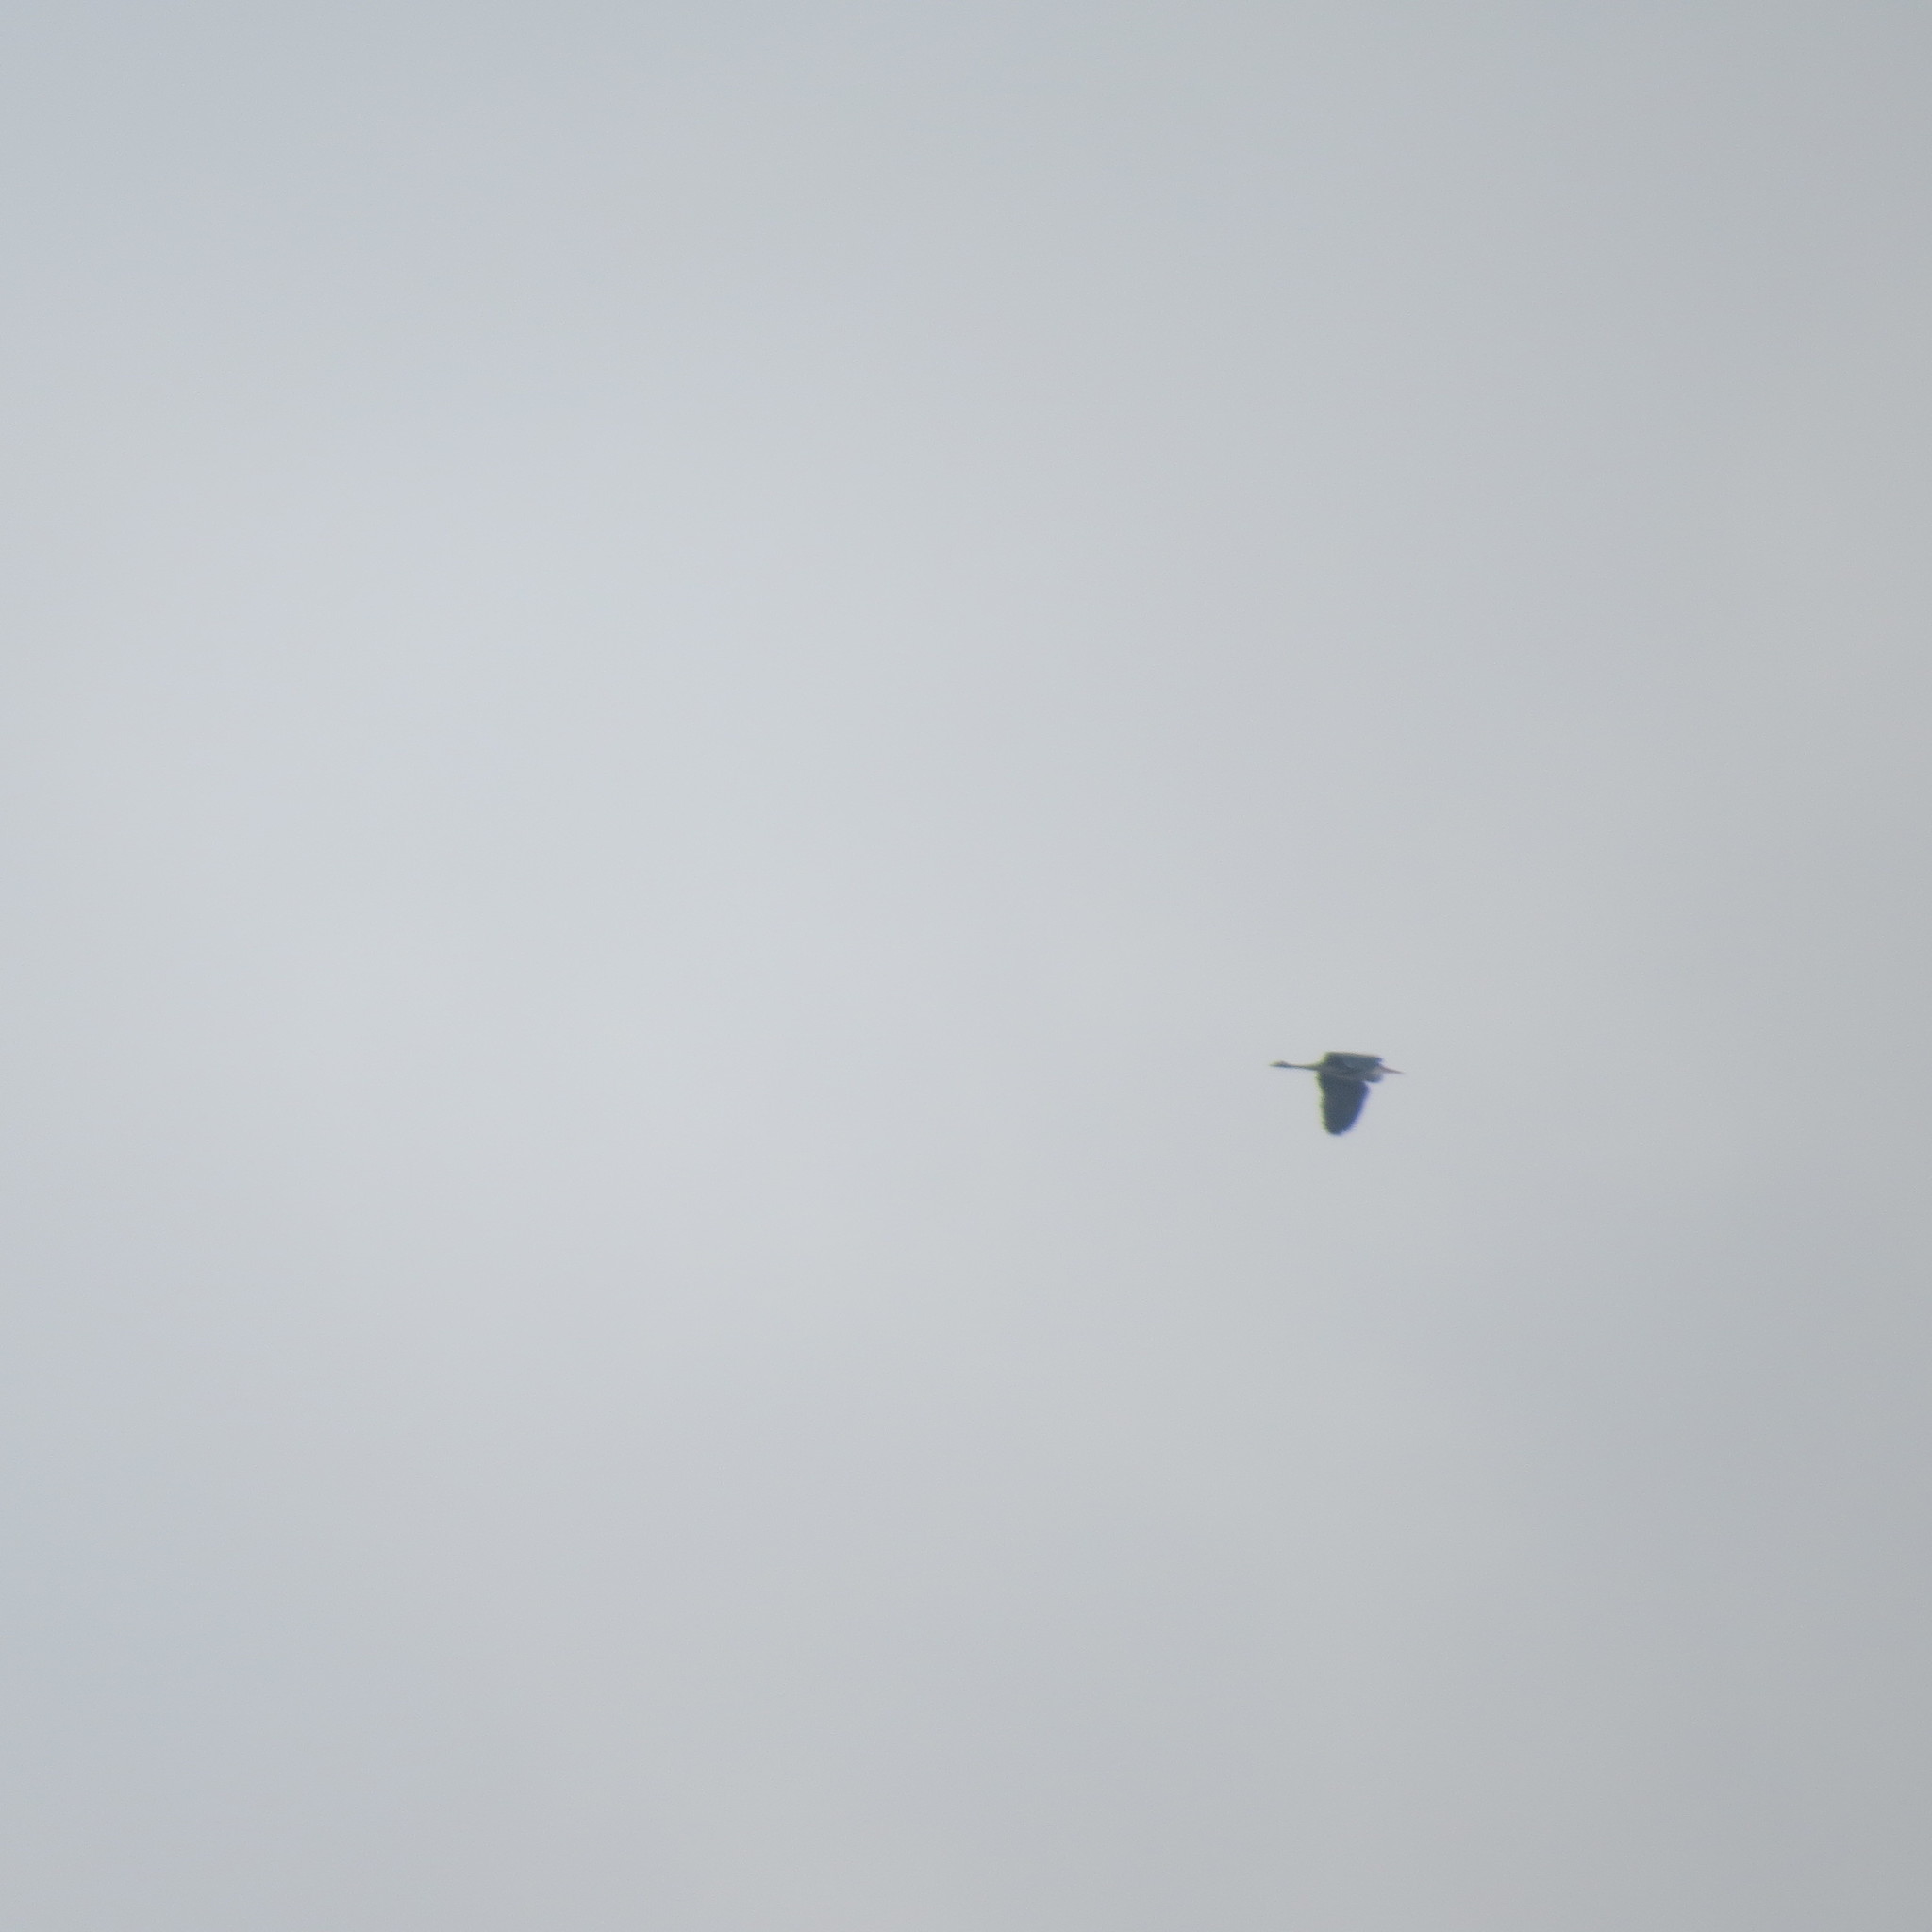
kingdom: Animalia
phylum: Chordata
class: Aves
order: Pelecaniformes
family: Ardeidae
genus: Ardea
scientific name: Ardea cinerea
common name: Grey heron
